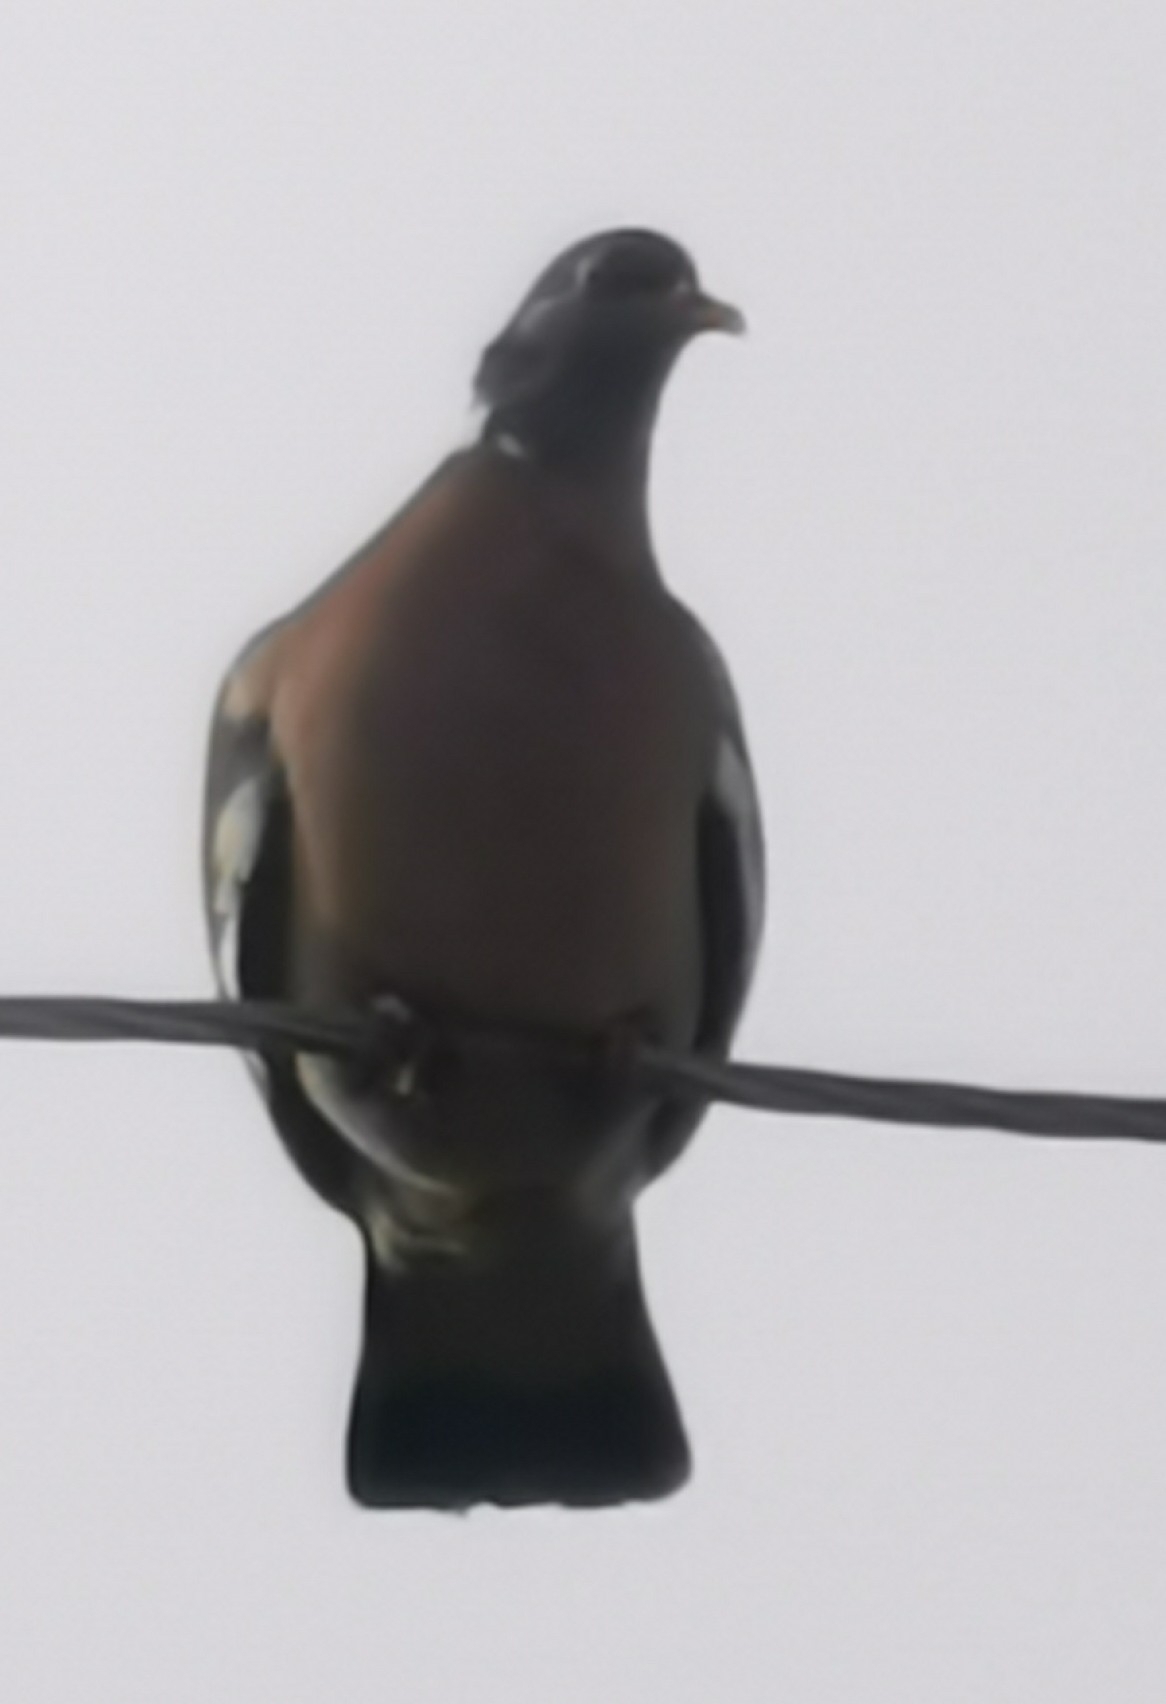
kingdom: Animalia
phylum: Chordata
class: Aves
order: Columbiformes
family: Columbidae
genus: Columba
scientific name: Columba palumbus
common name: Common wood pigeon
